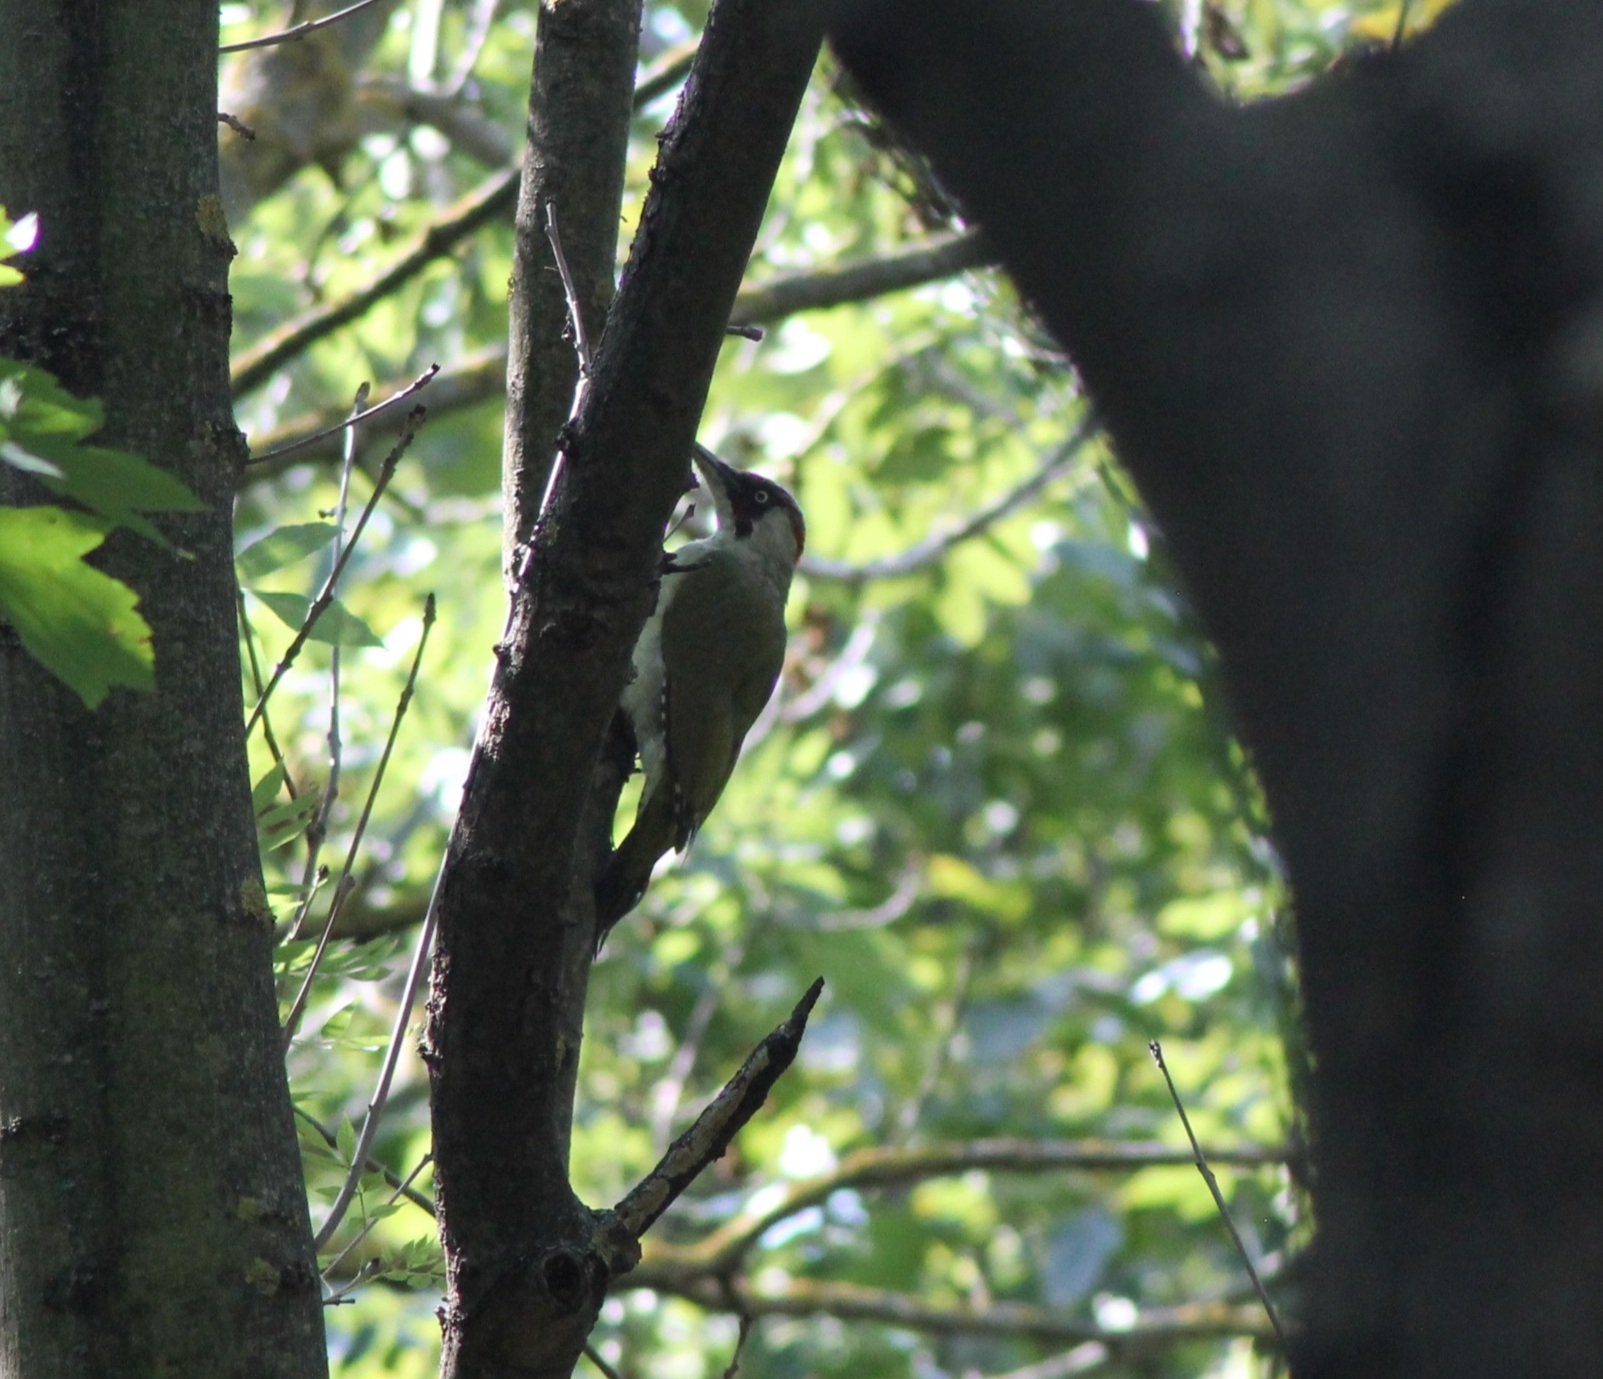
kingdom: Animalia
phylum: Chordata
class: Aves
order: Piciformes
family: Picidae
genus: Picus
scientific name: Picus viridis
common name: European green woodpecker
